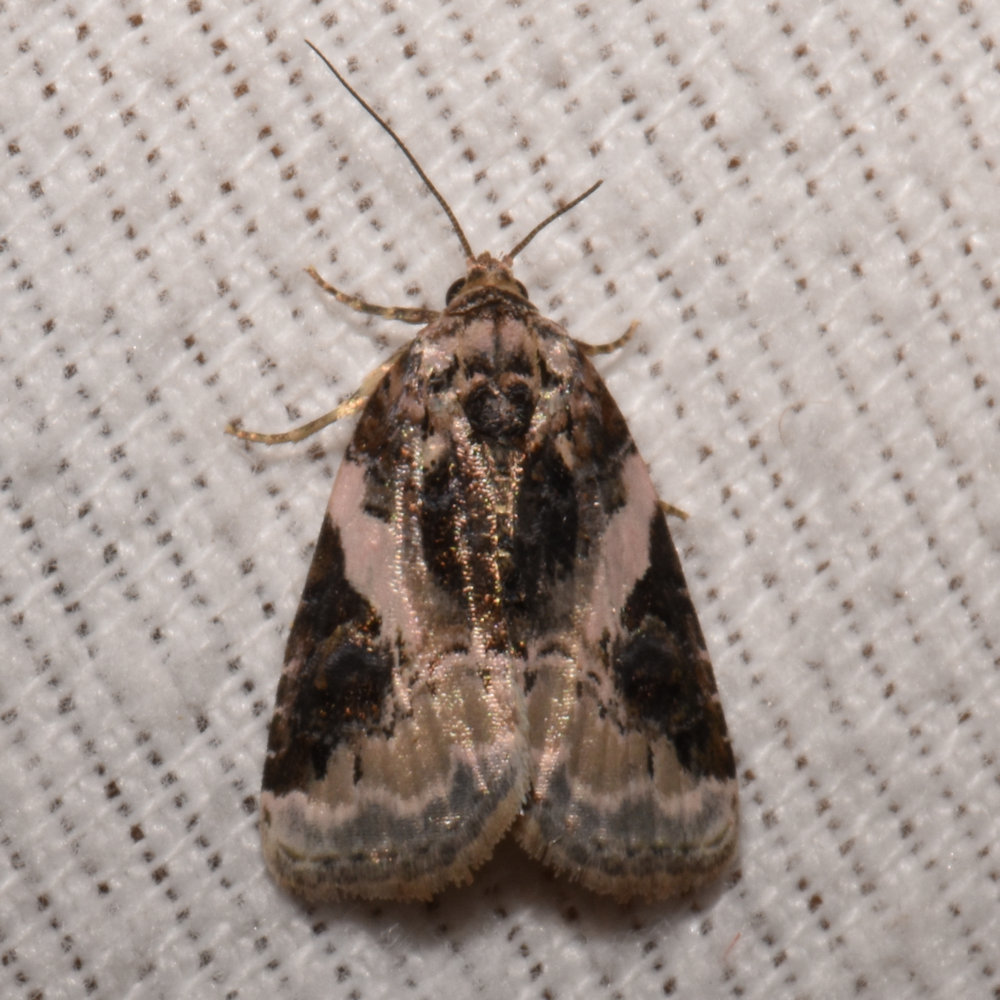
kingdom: Animalia
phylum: Arthropoda
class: Insecta
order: Lepidoptera
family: Noctuidae
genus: Pseudeustrotia
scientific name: Pseudeustrotia carneola
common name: Pink-barred lithacodia moth
